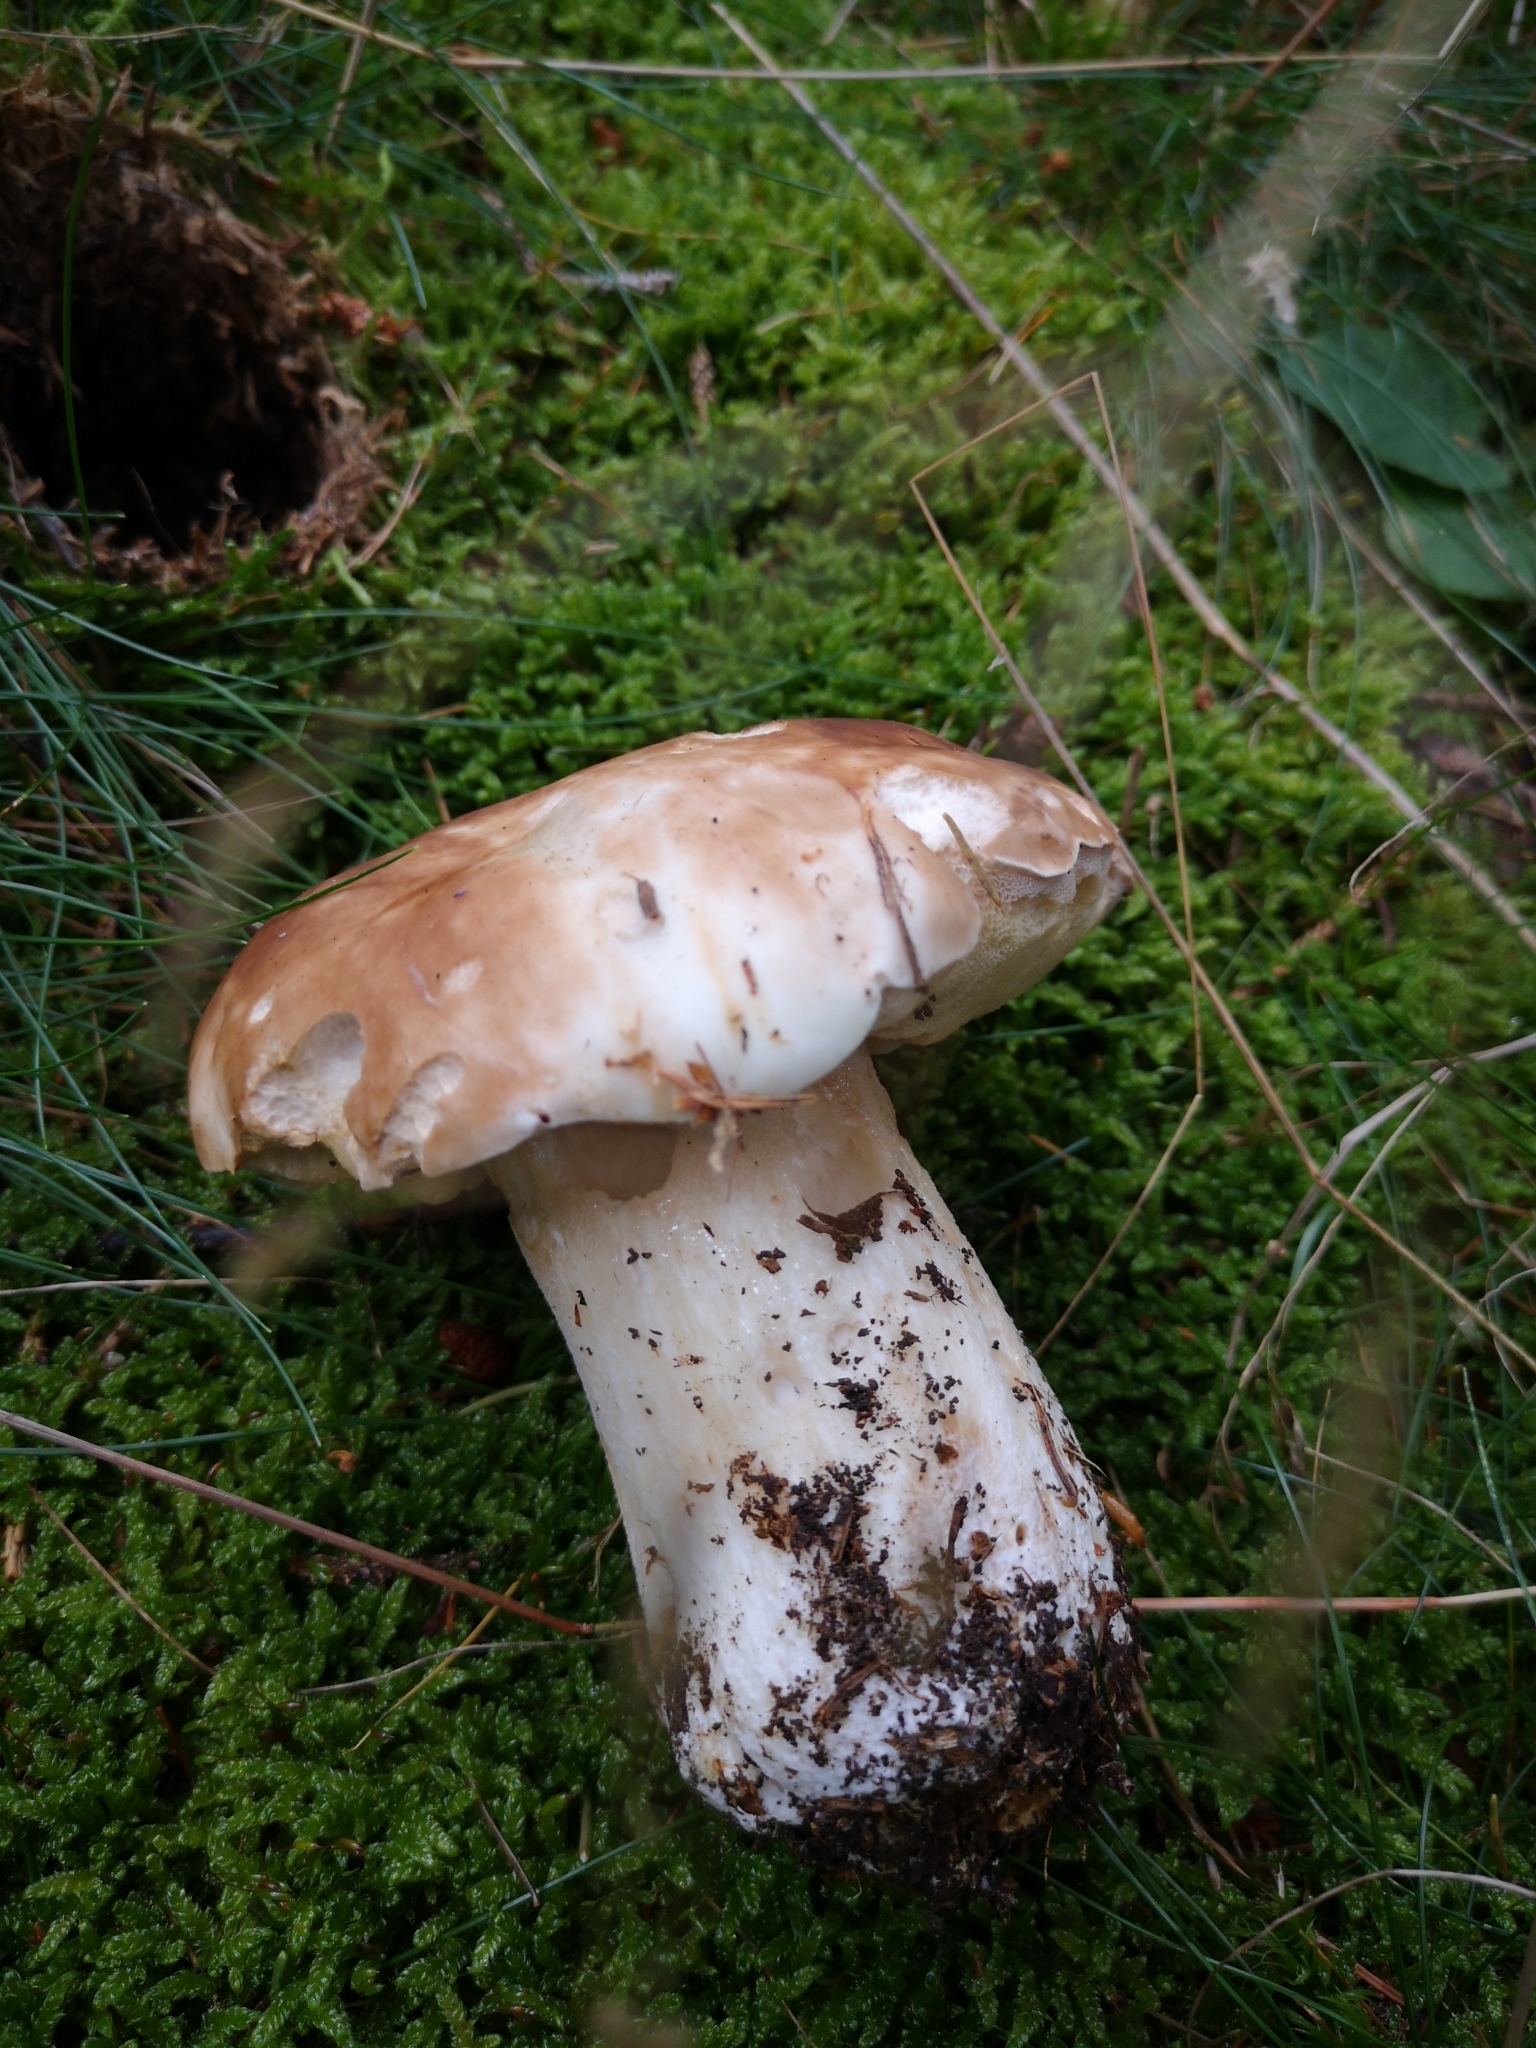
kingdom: Fungi
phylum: Basidiomycota
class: Agaricomycetes
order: Boletales
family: Boletaceae
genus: Boletus
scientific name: Boletus edulis
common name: Cep
